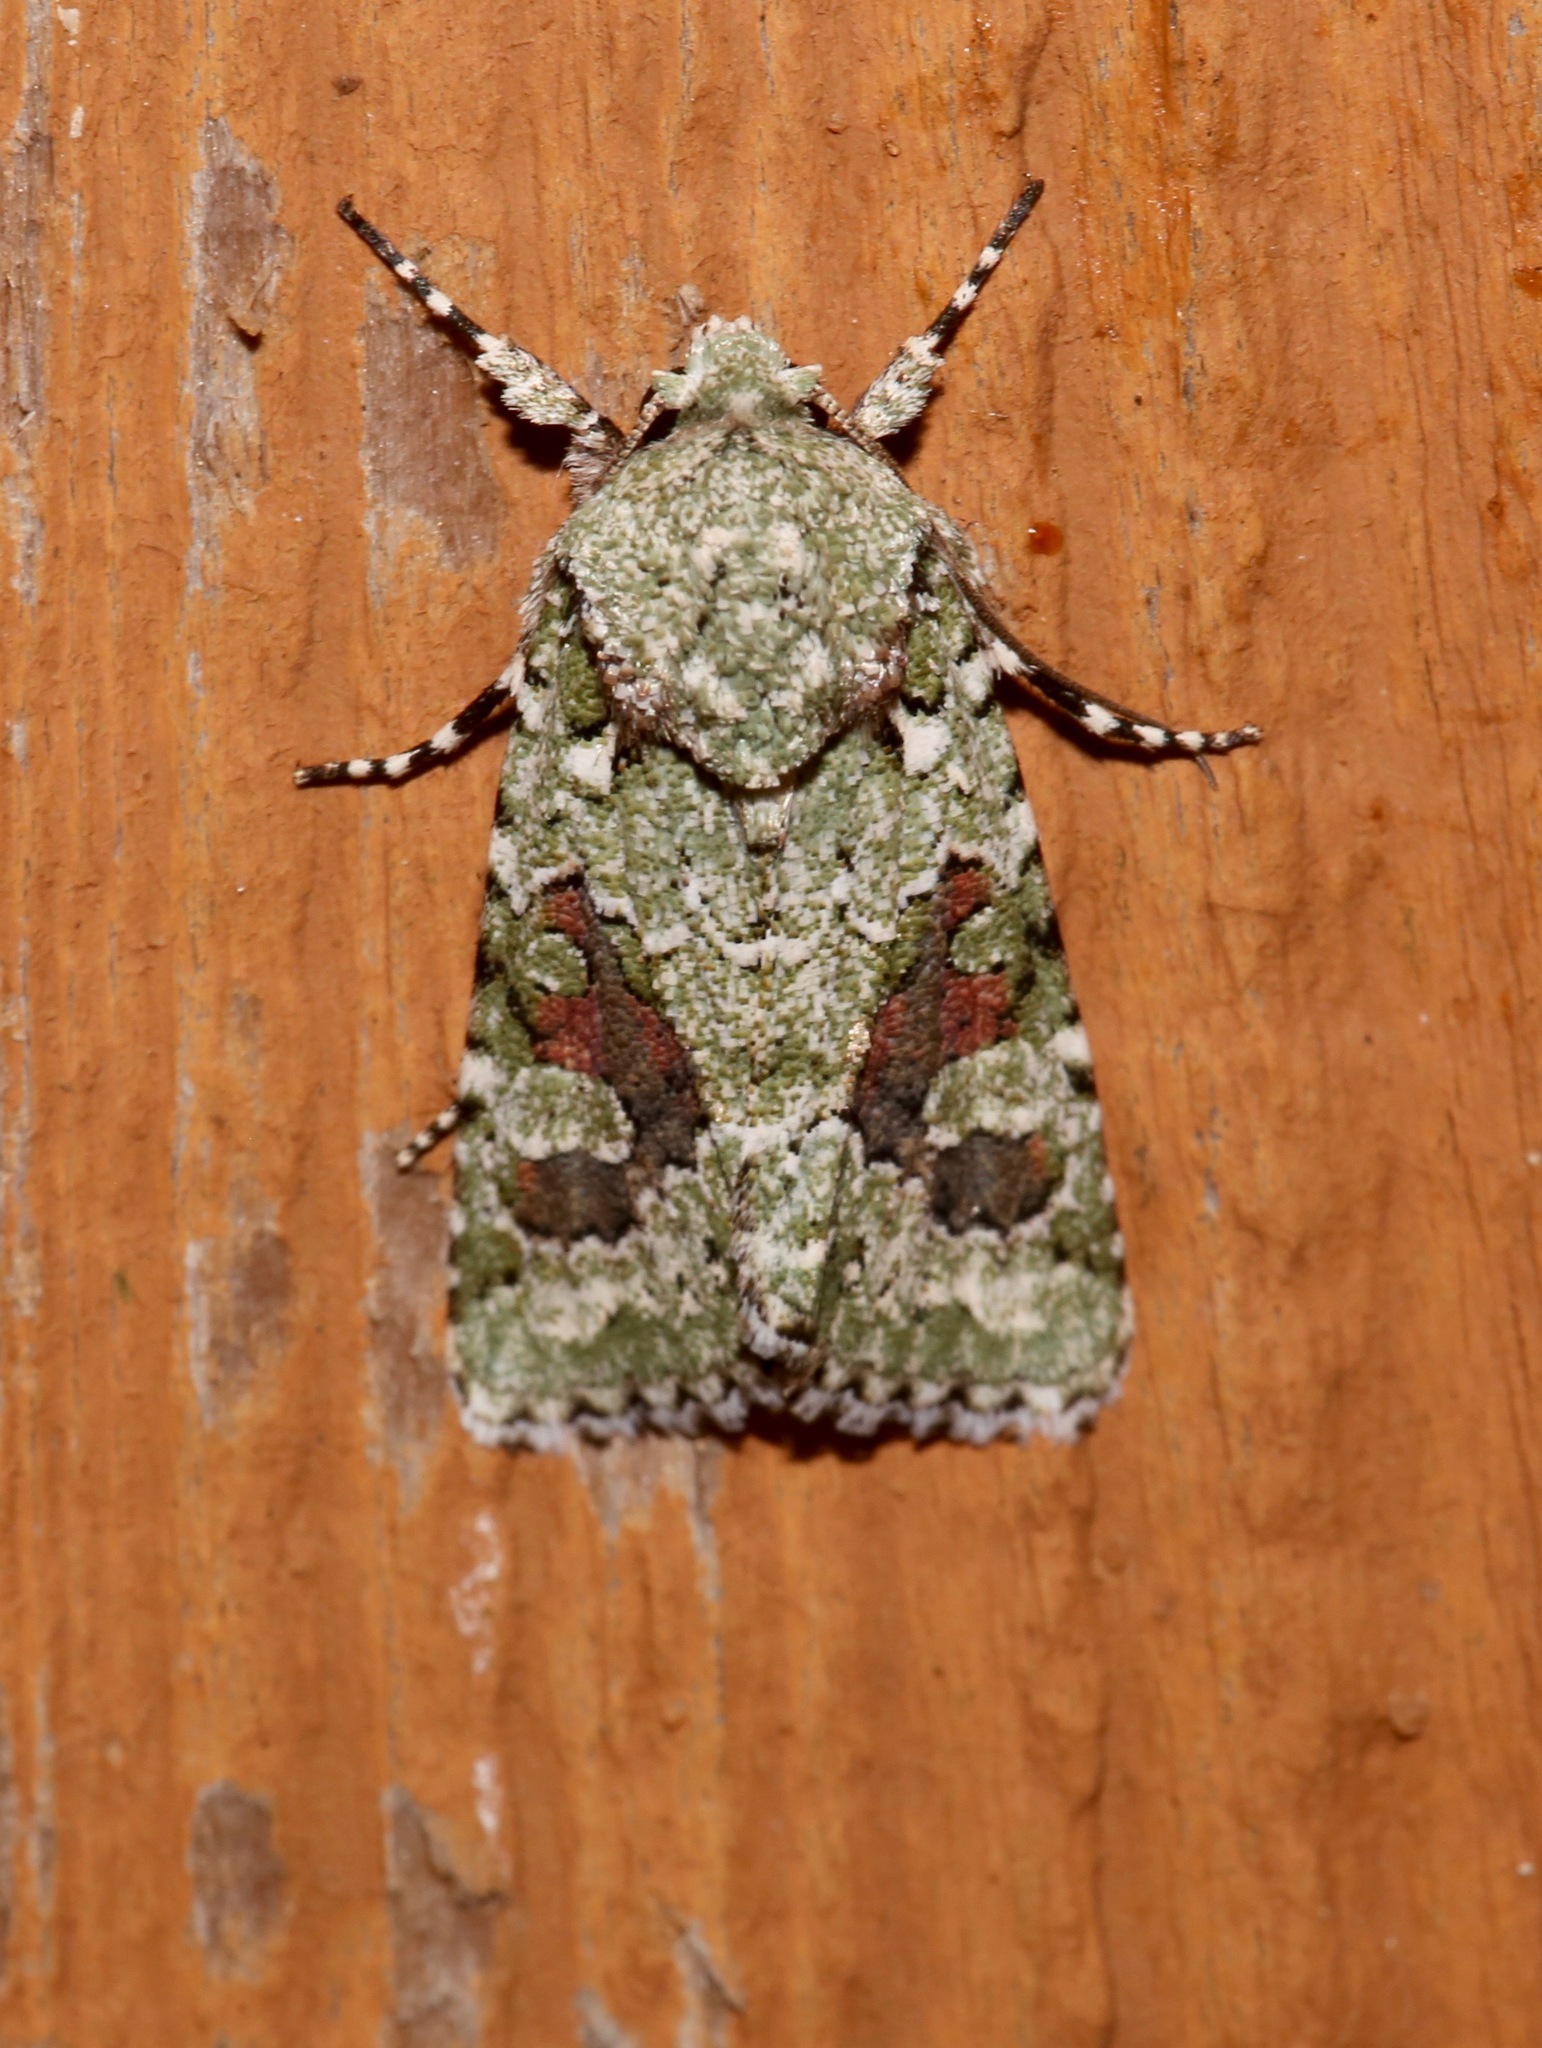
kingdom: Animalia
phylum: Arthropoda
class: Insecta
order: Lepidoptera
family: Noctuidae
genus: Lacinipolia
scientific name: Lacinipolia laudabilis
